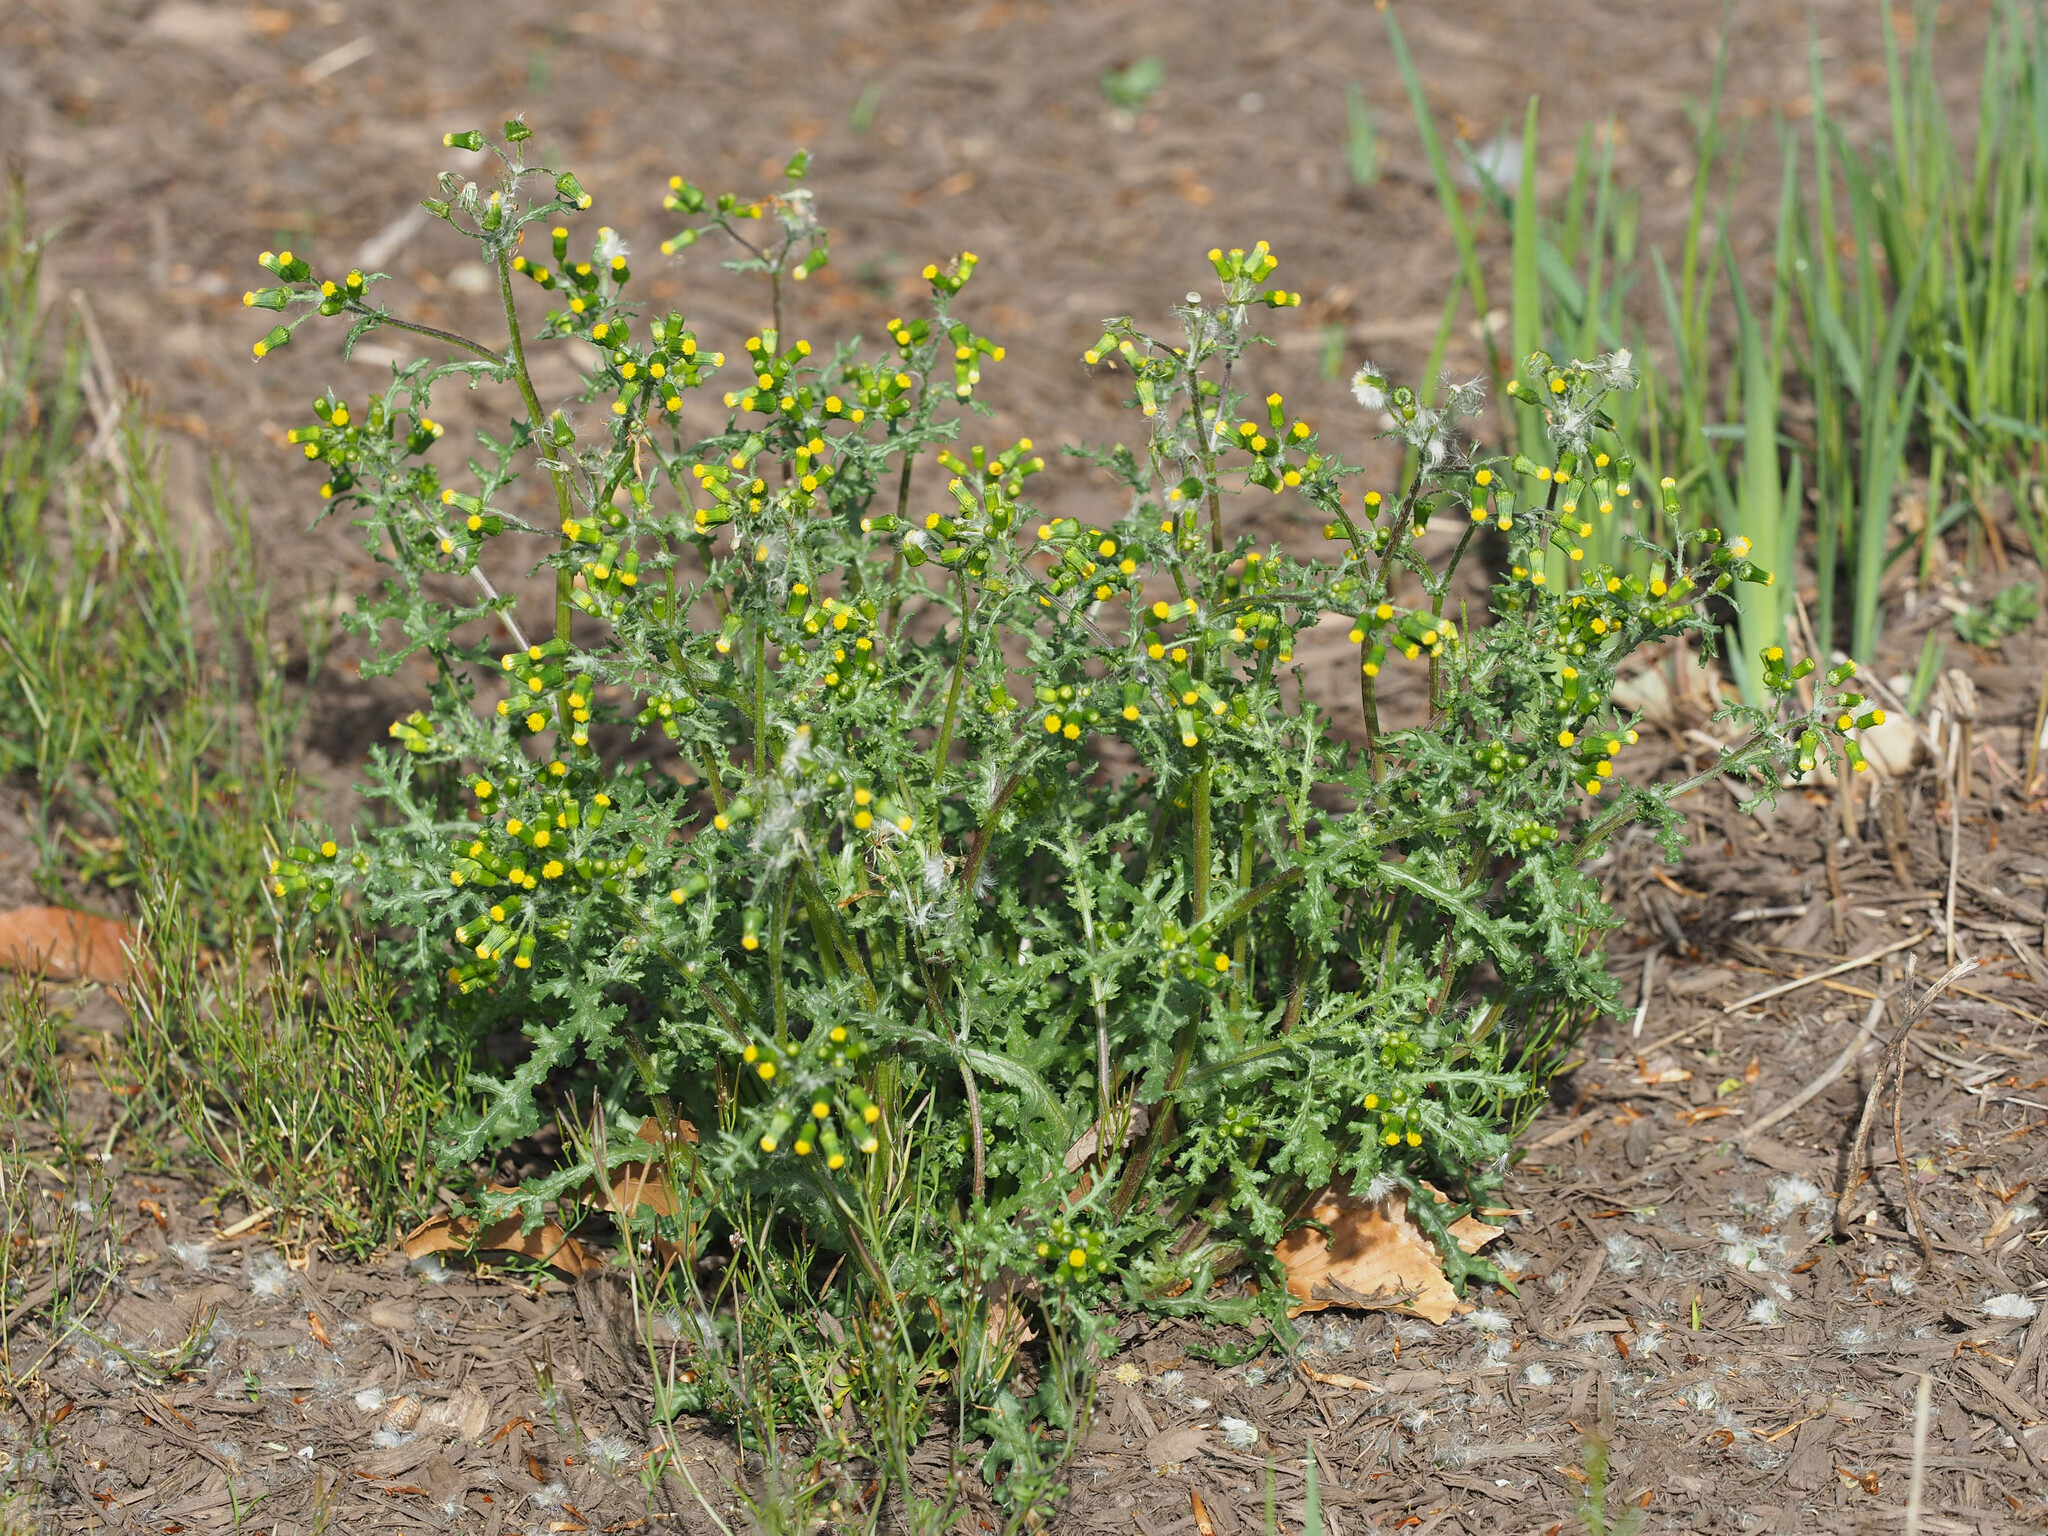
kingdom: Plantae
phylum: Tracheophyta
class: Magnoliopsida
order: Asterales
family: Asteraceae
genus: Senecio
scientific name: Senecio vulgaris
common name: Old-man-in-the-spring
